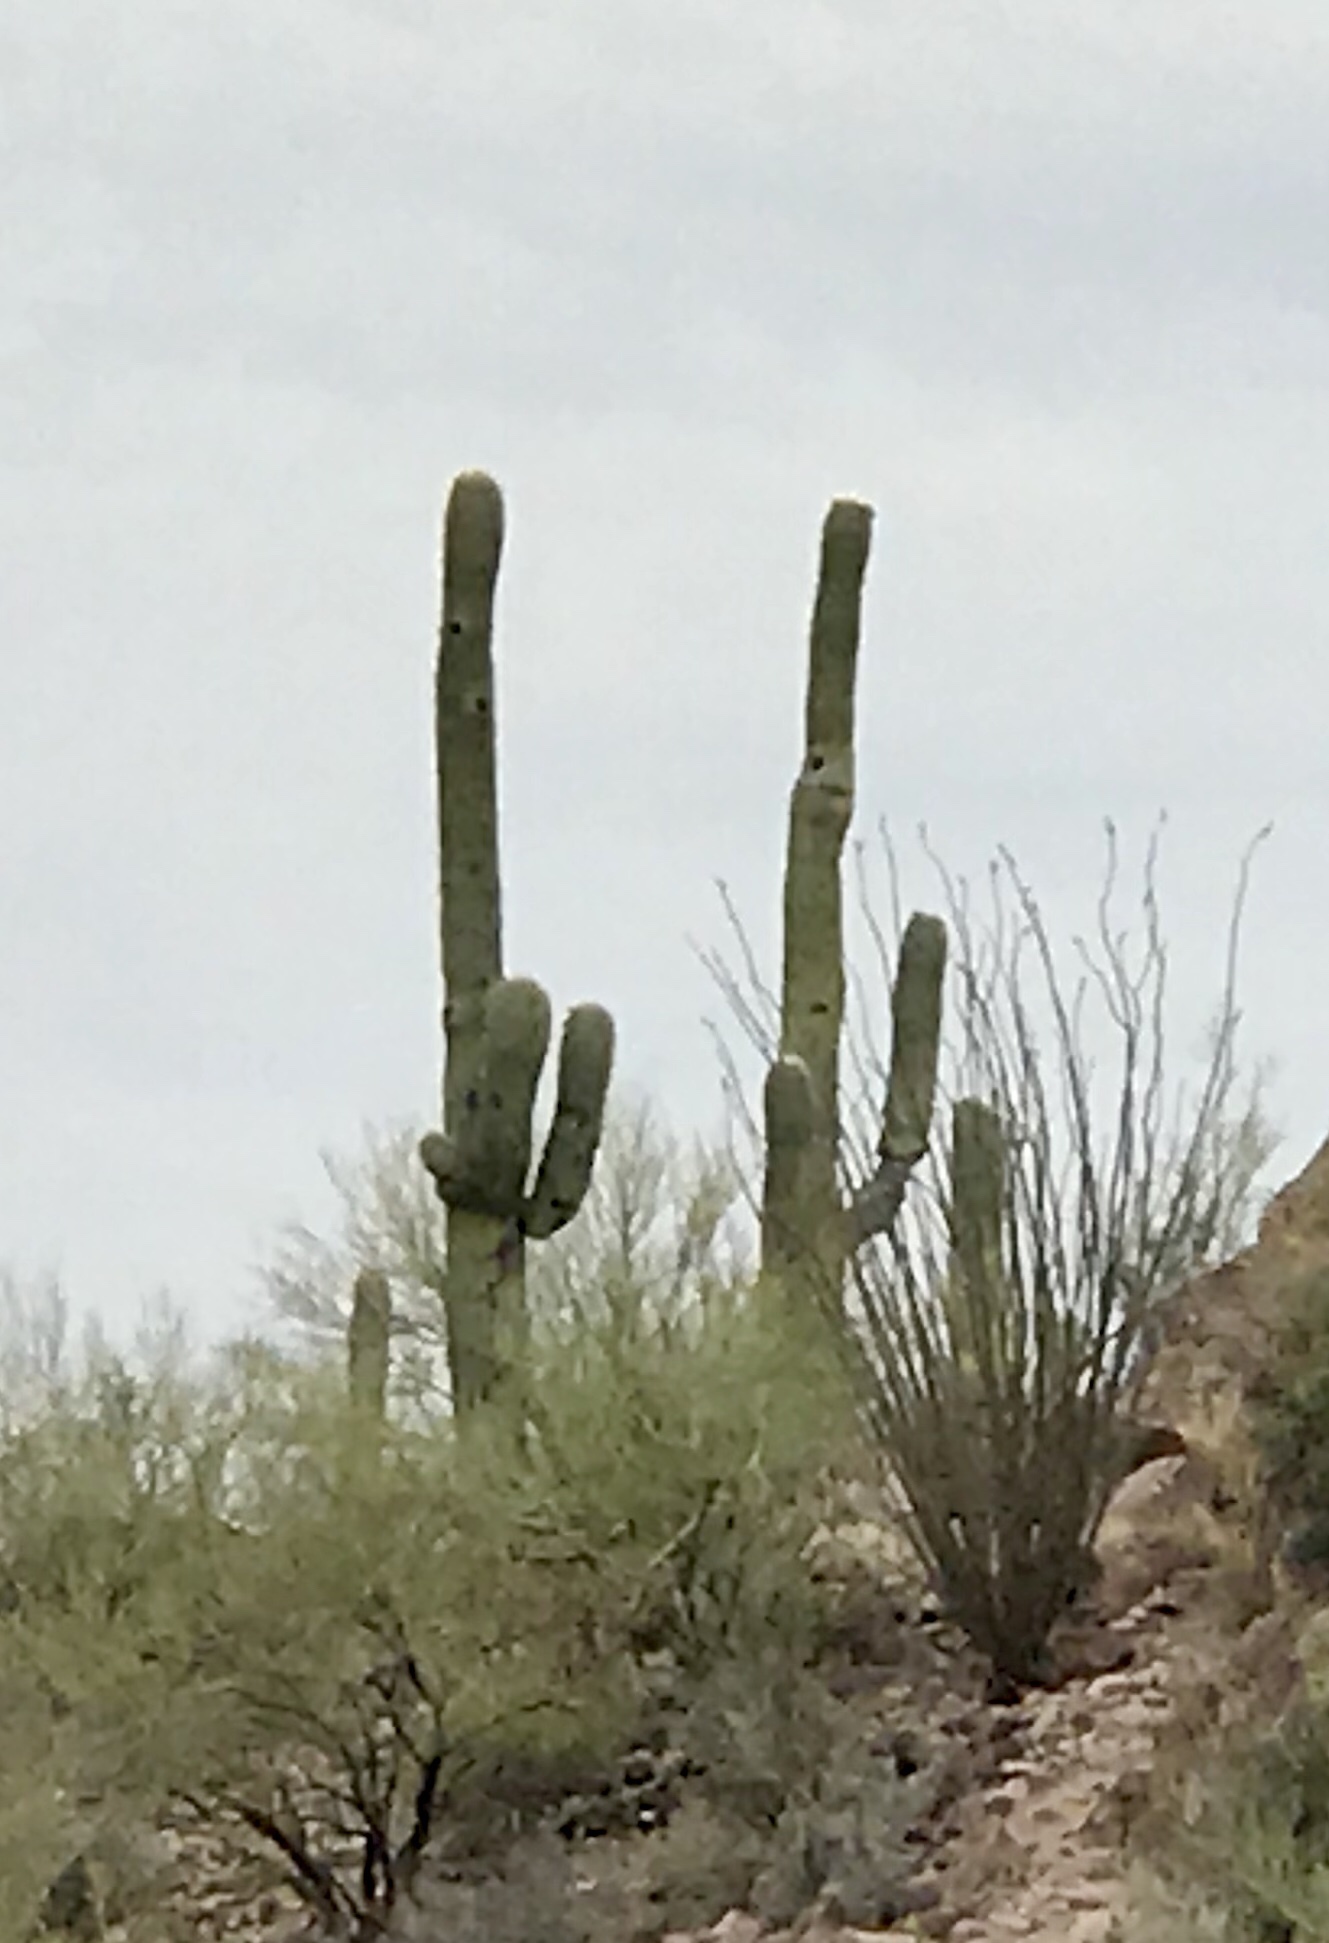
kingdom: Plantae
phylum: Tracheophyta
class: Magnoliopsida
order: Caryophyllales
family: Cactaceae
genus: Carnegiea
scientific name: Carnegiea gigantea
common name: Saguaro
